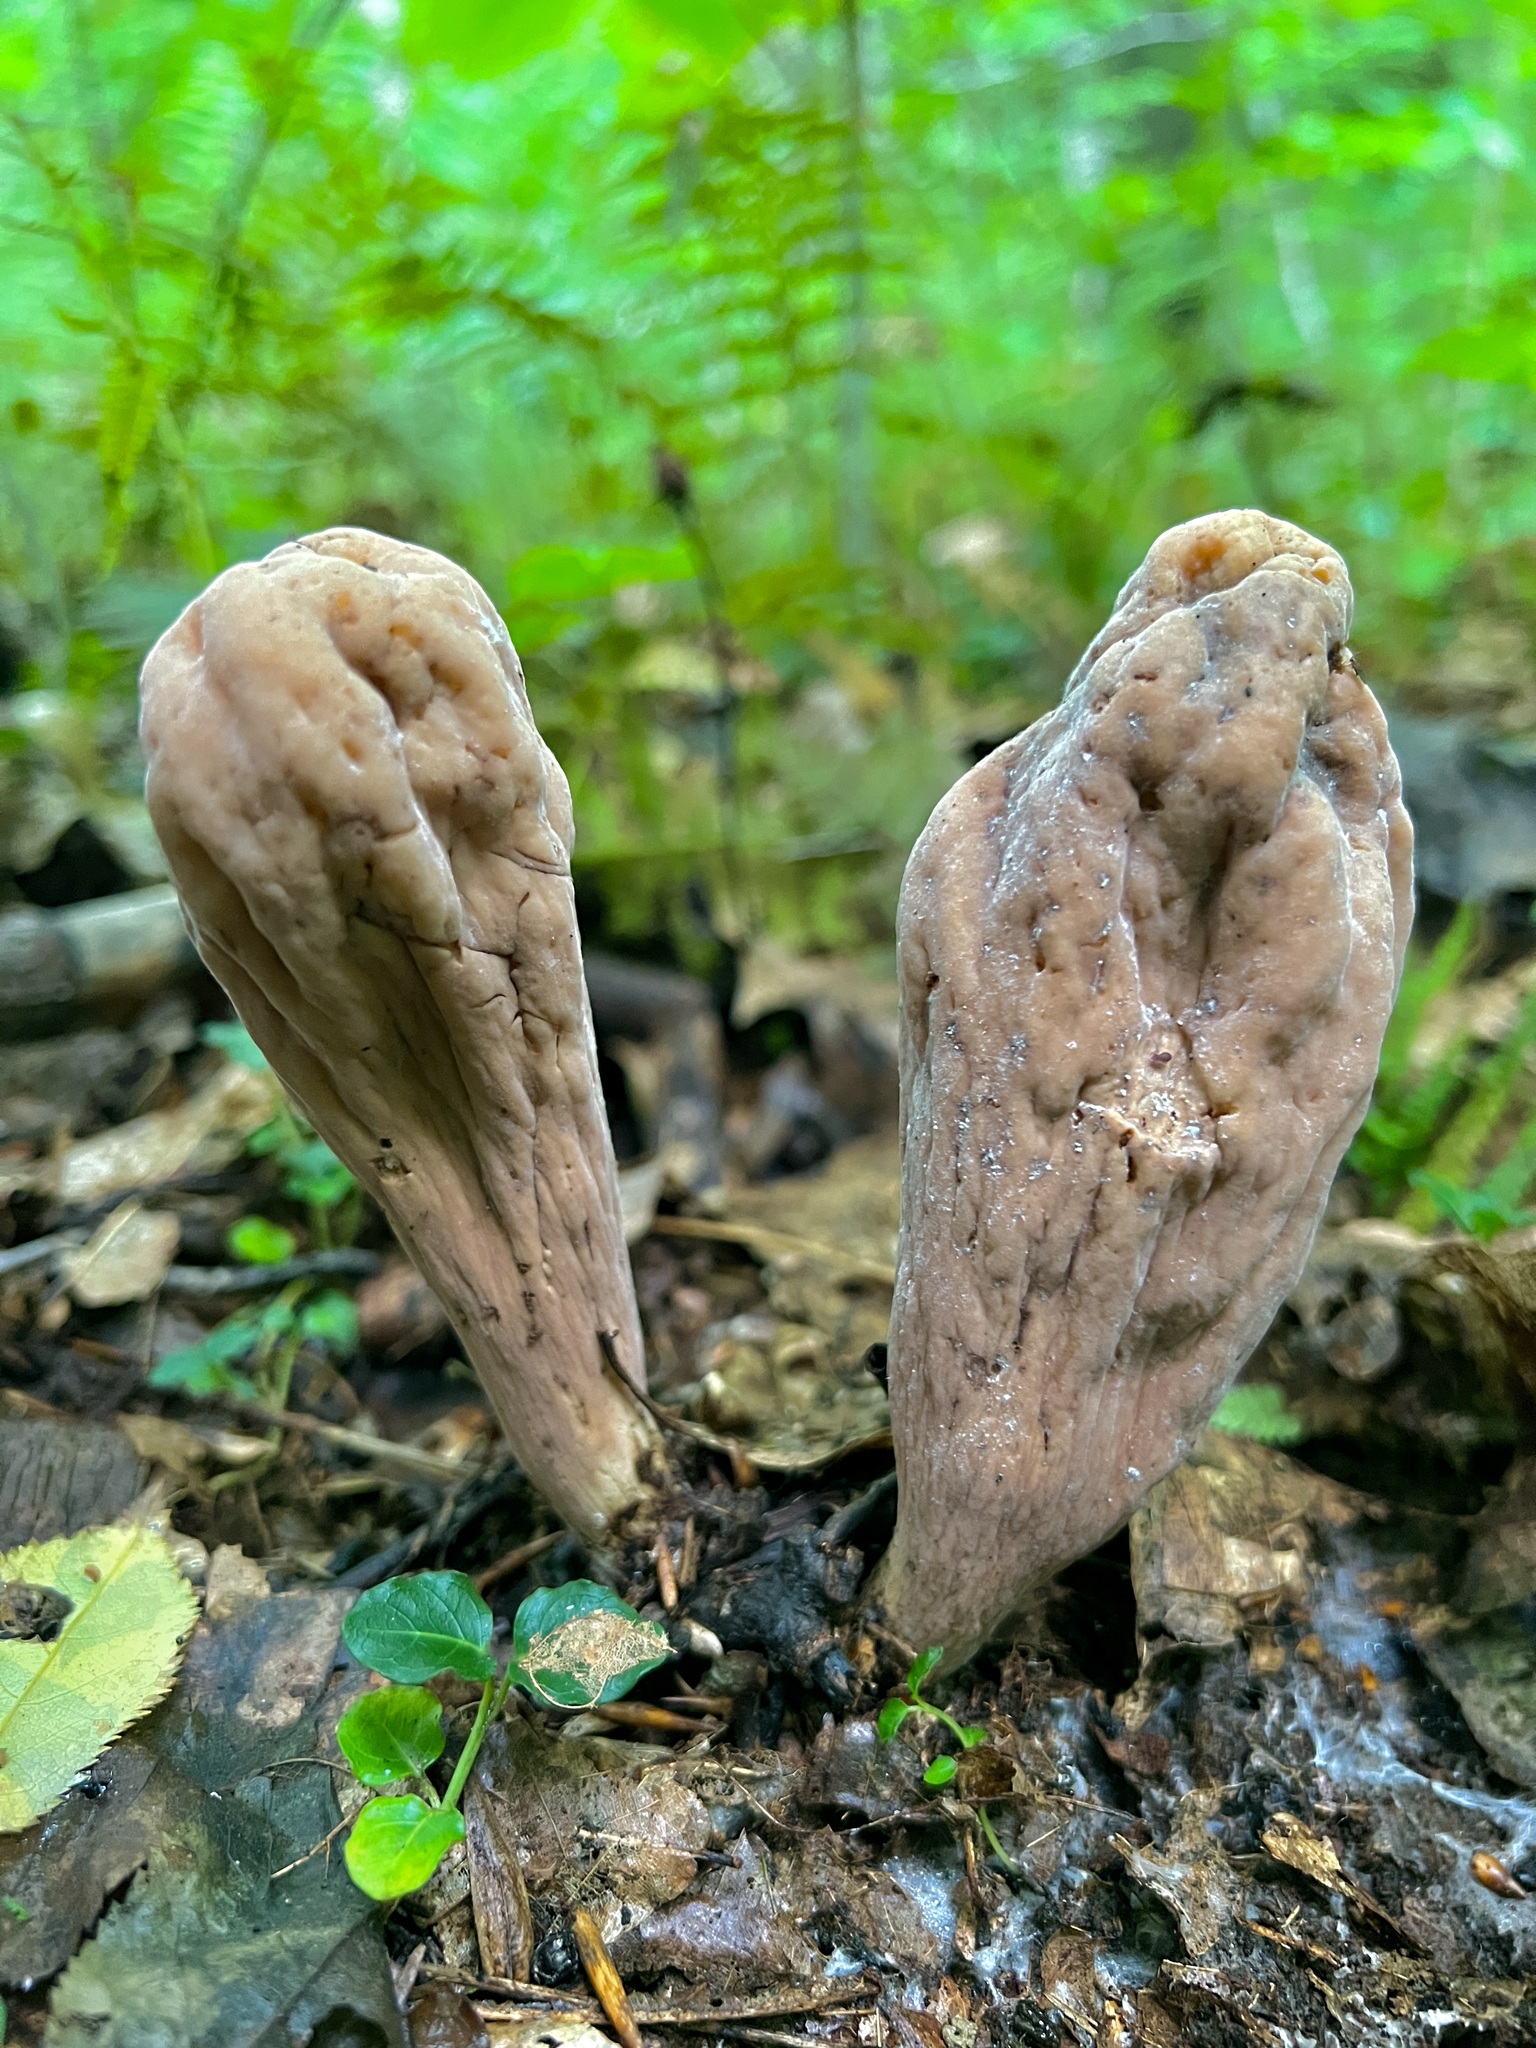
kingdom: Fungi
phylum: Basidiomycota
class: Agaricomycetes
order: Gomphales
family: Clavariadelphaceae
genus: Clavariadelphus
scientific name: Clavariadelphus pistillaris
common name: Giant club
